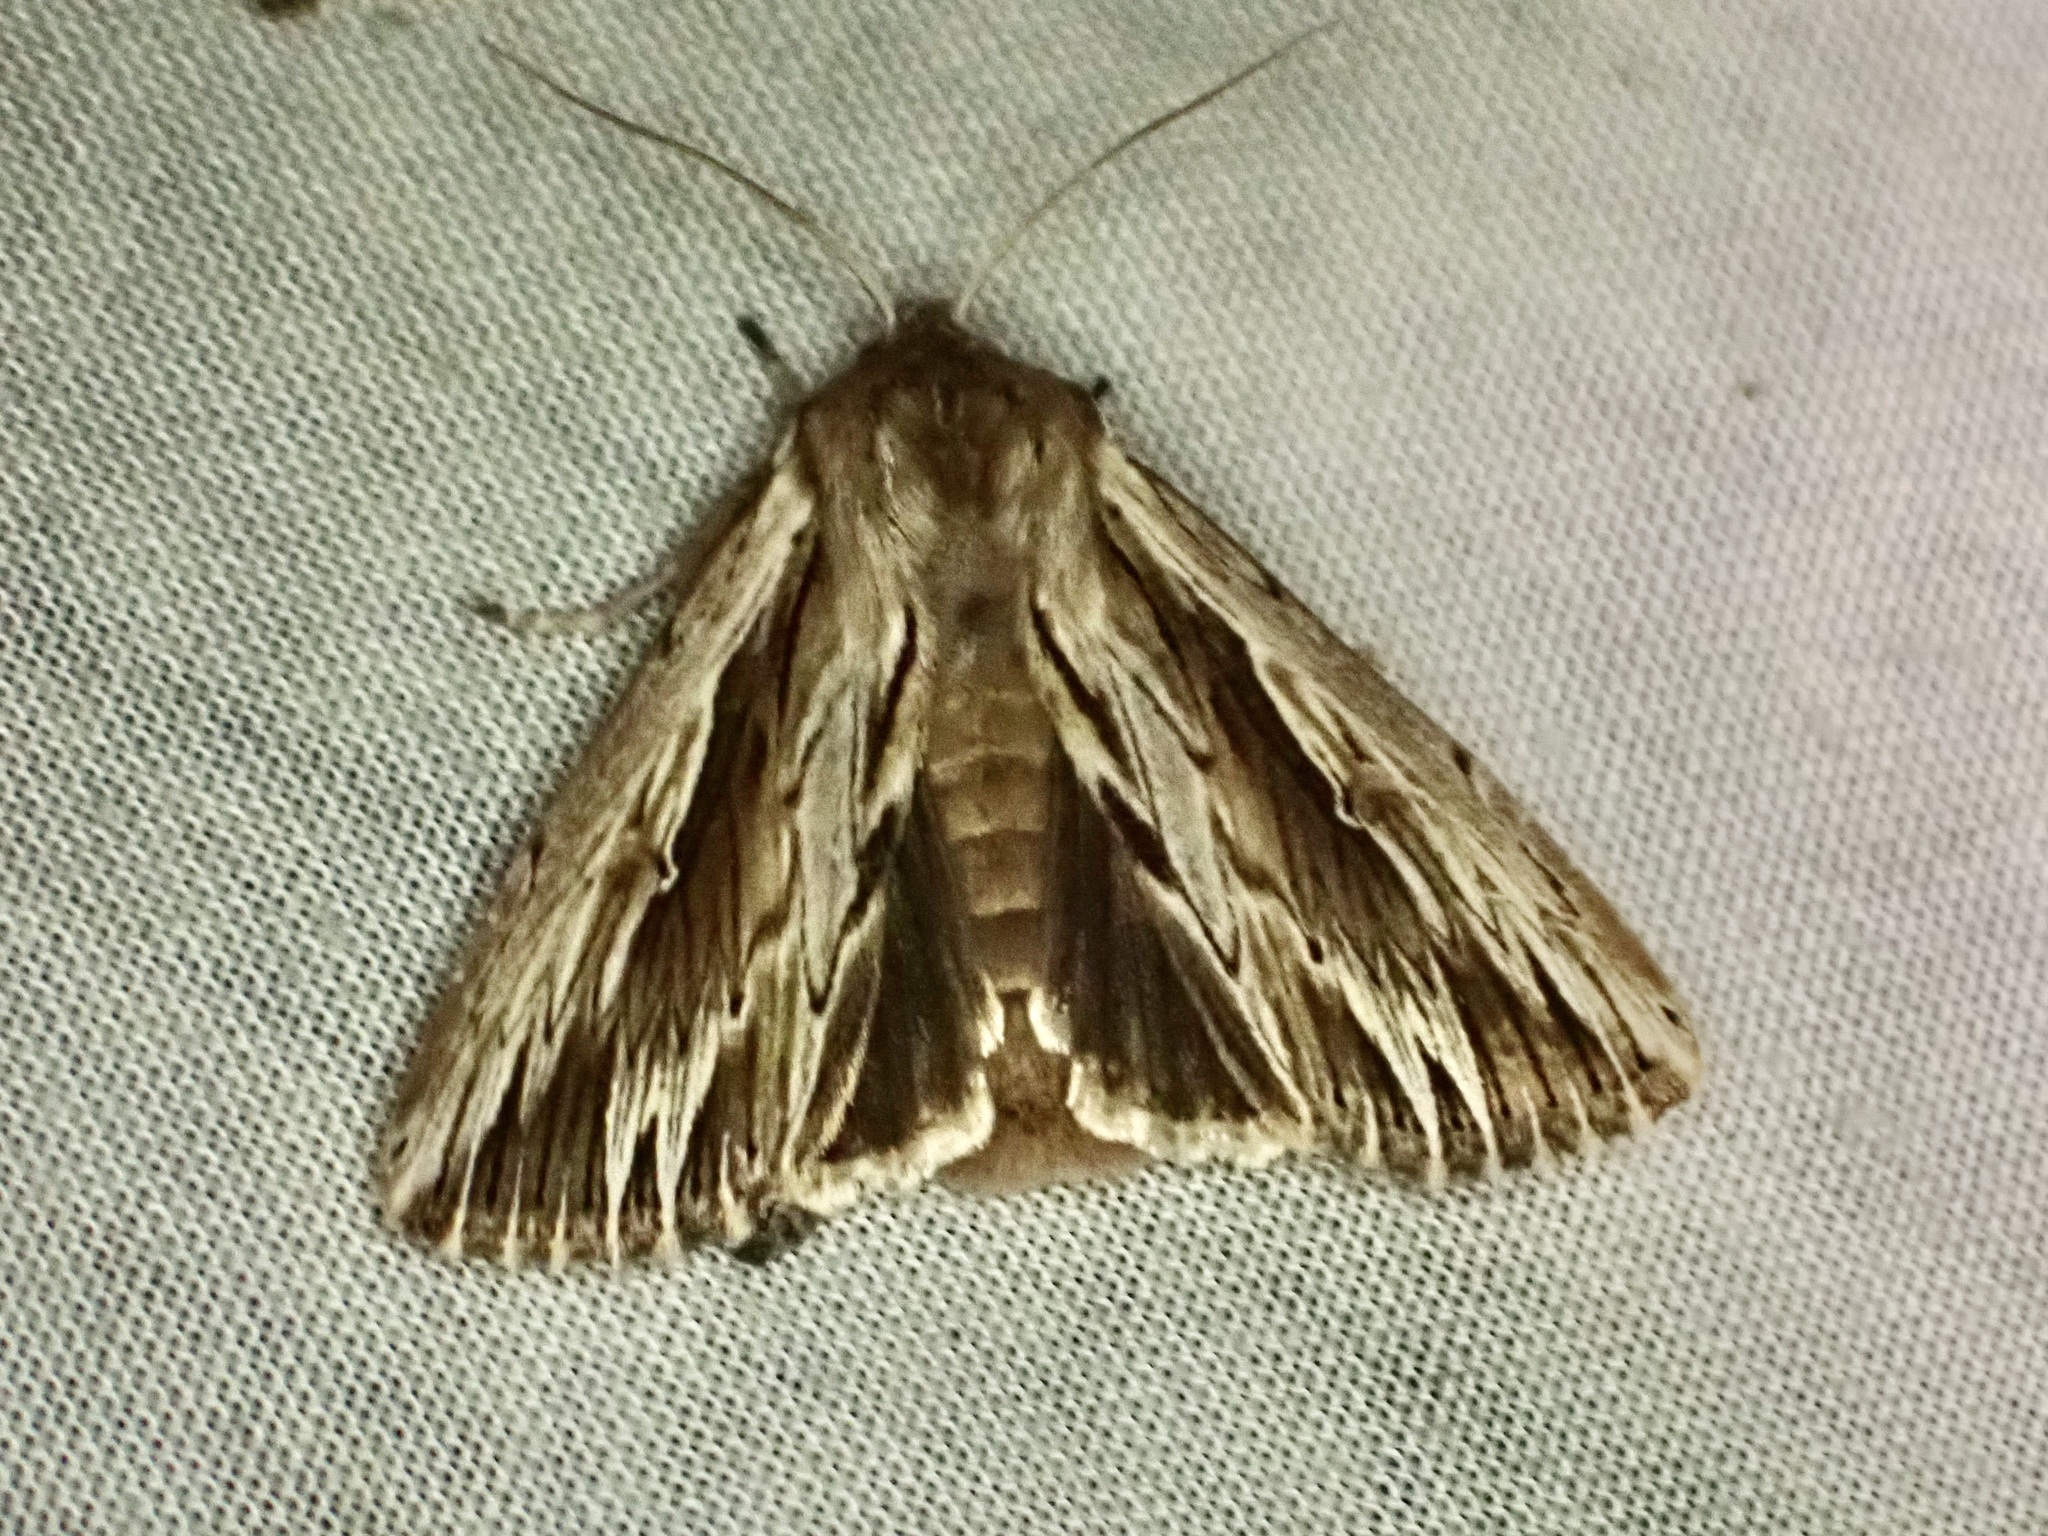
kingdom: Animalia
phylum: Arthropoda
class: Insecta
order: Lepidoptera
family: Noctuidae
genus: Persectania
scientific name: Persectania aversa
